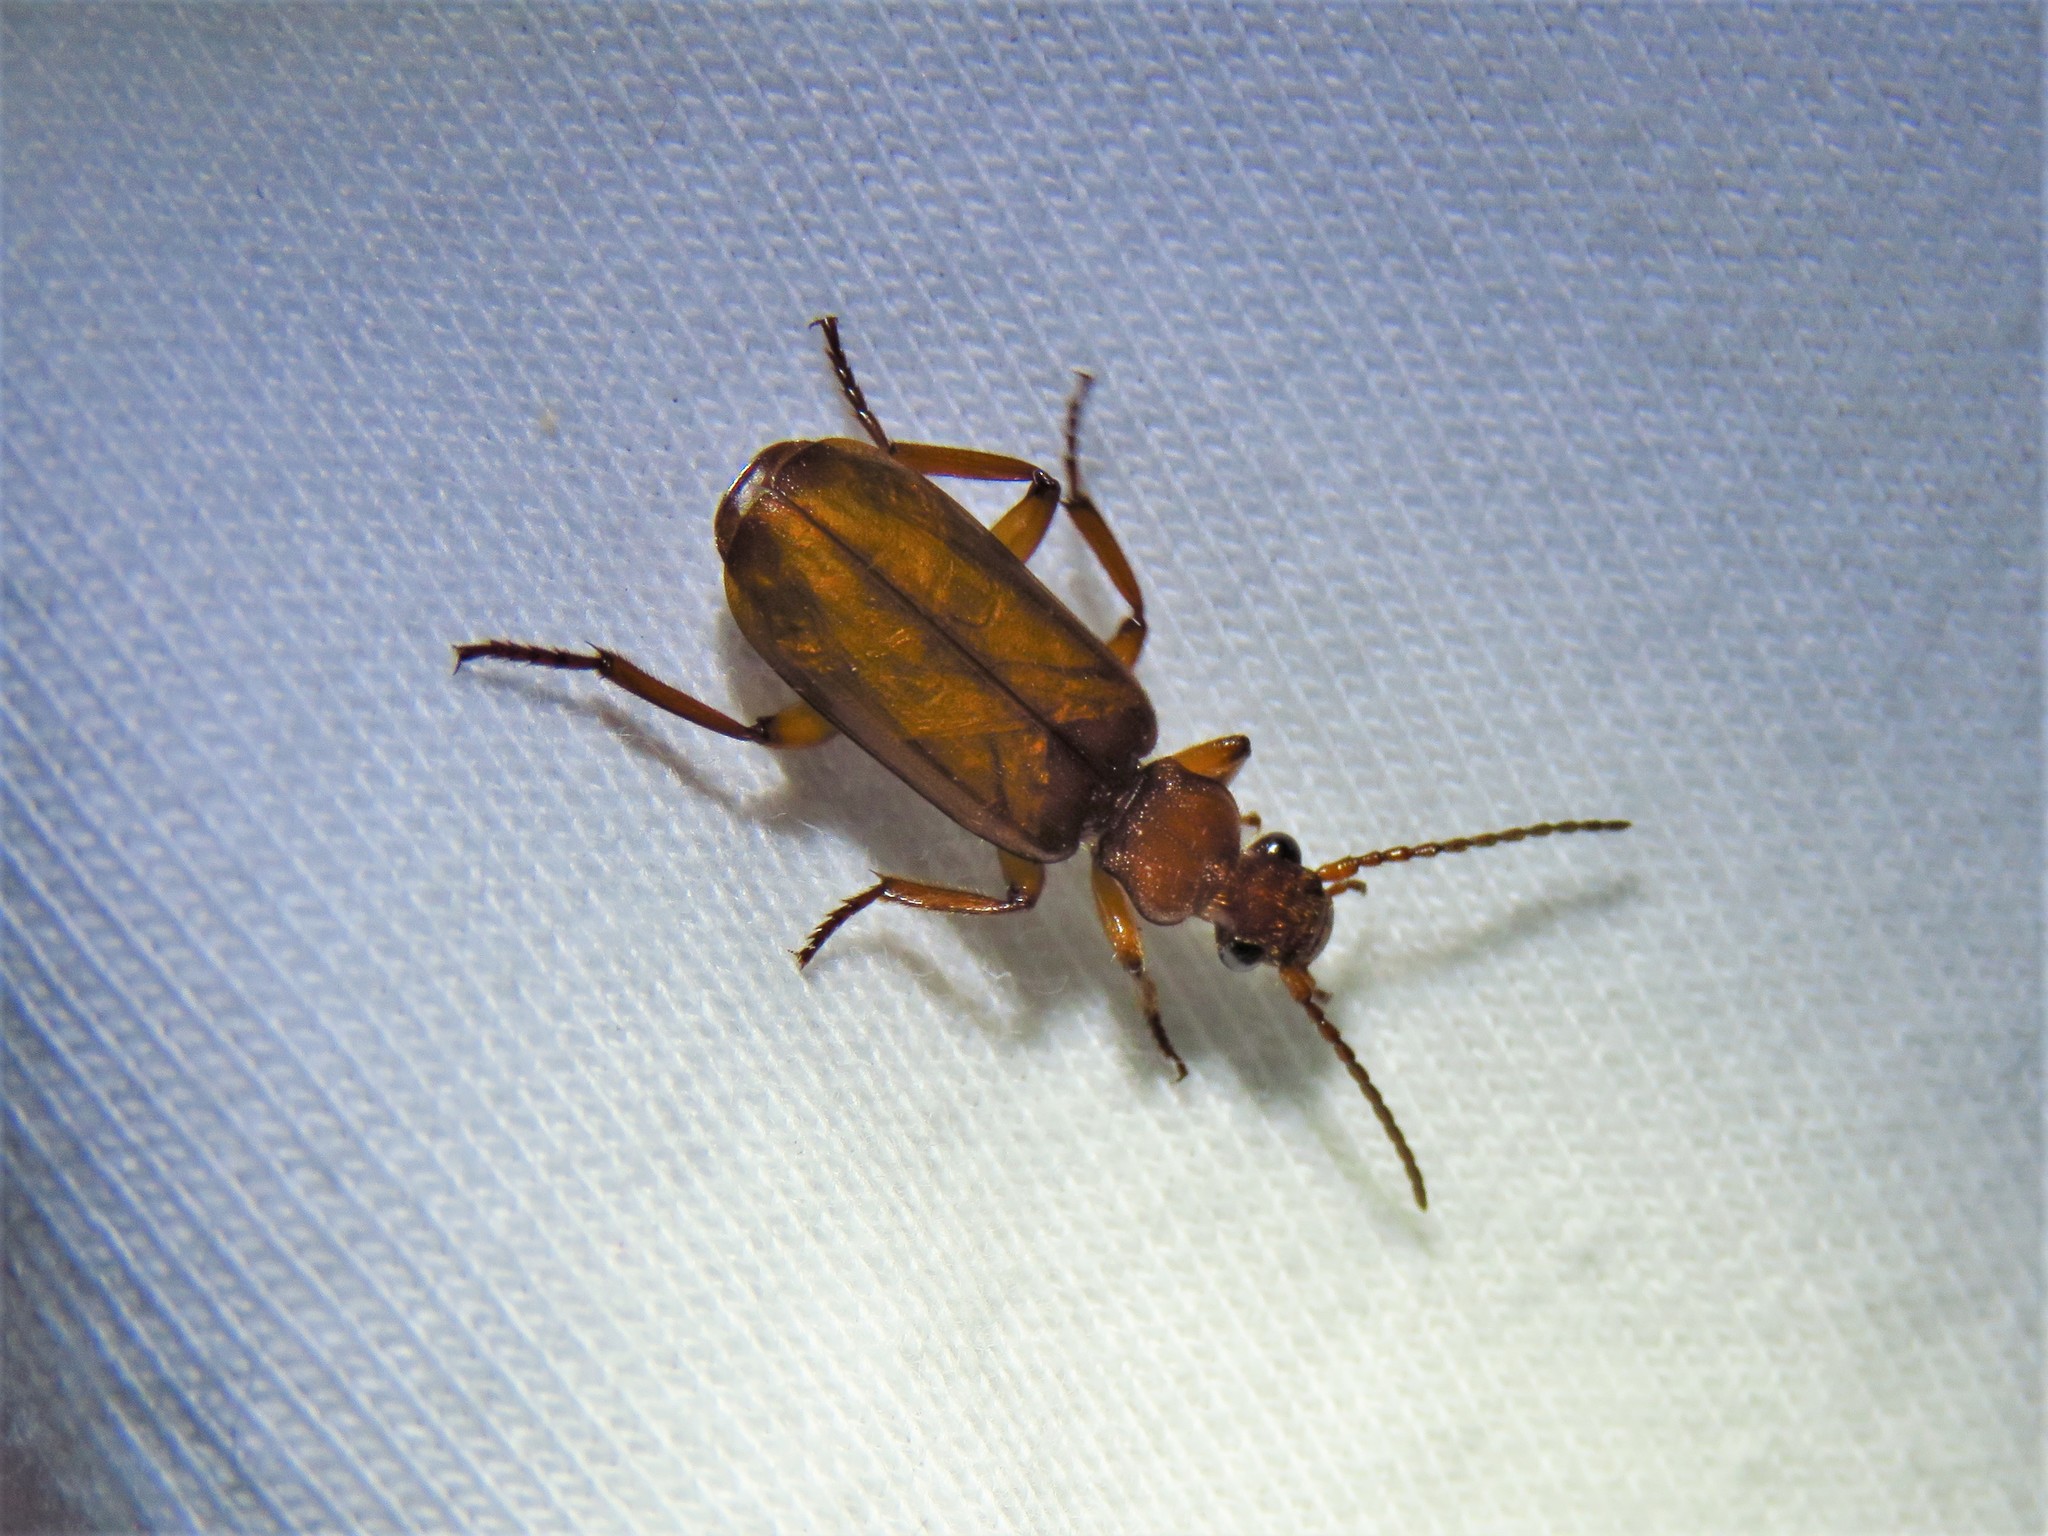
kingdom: Animalia
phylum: Arthropoda
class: Insecta
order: Coleoptera
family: Carabidae
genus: Helluomorphoides
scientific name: Helluomorphoides ferrugineus
